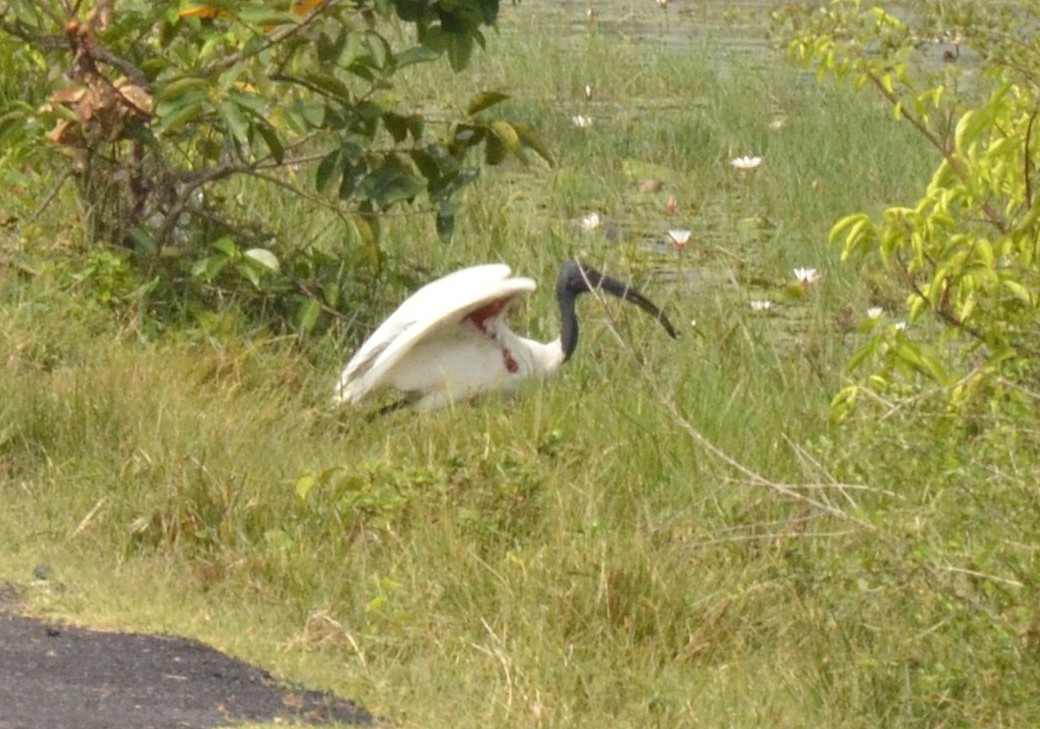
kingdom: Animalia
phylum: Chordata
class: Aves
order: Pelecaniformes
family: Threskiornithidae
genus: Threskiornis
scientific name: Threskiornis melanocephalus
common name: Black-headed ibis
